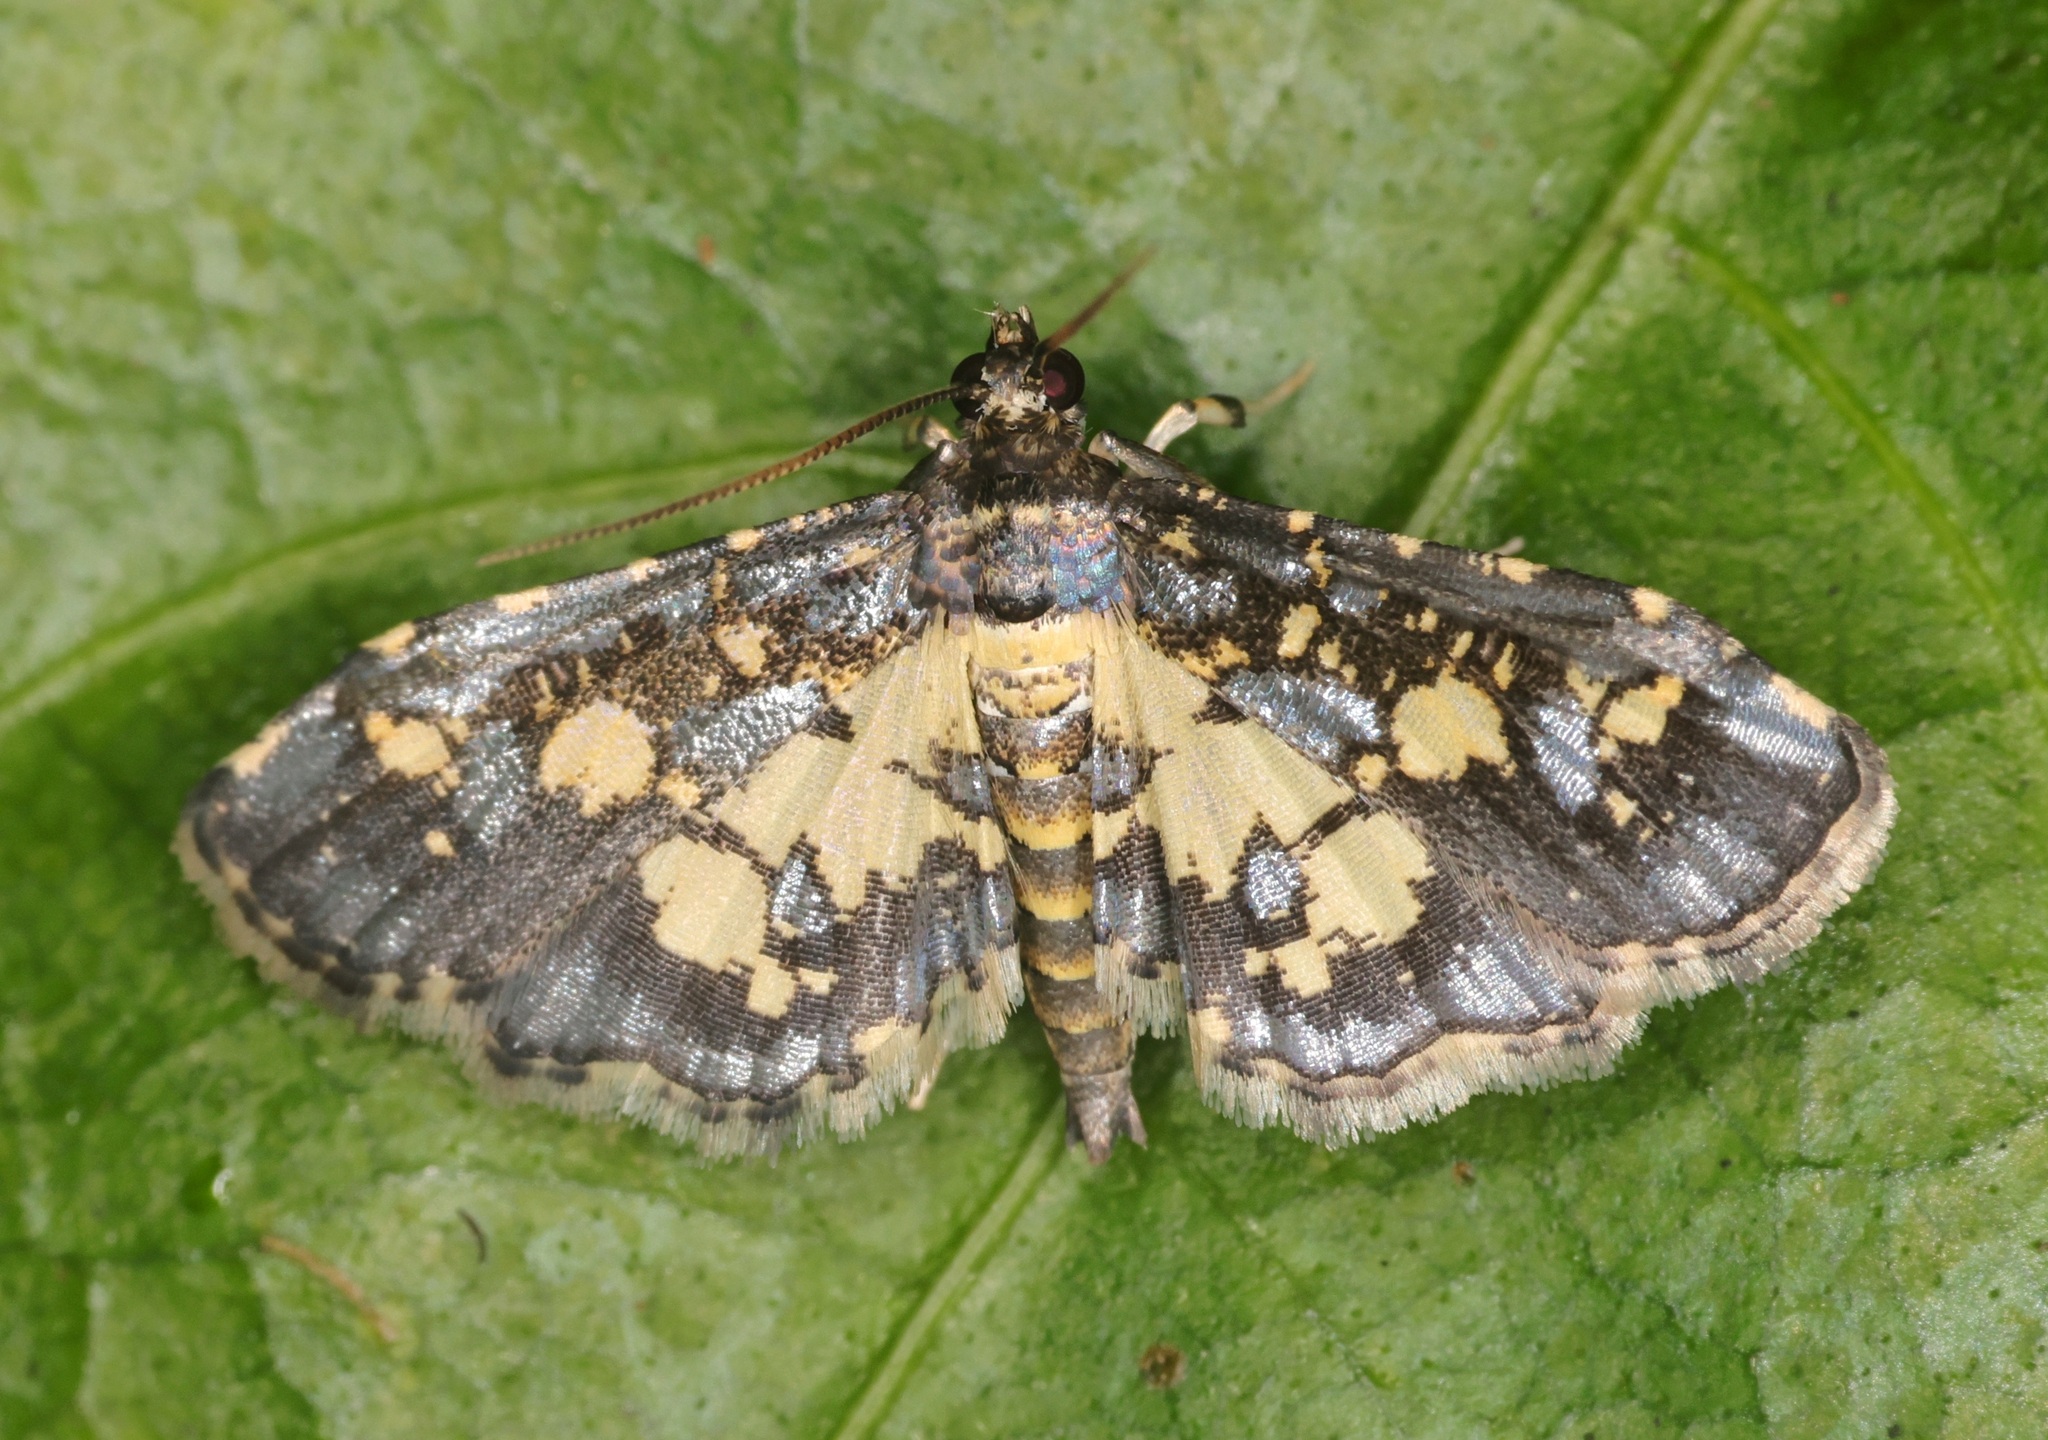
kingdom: Animalia
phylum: Arthropoda
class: Insecta
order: Lepidoptera
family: Crambidae
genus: Eurrhyparodes
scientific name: Eurrhyparodes bracteolalis
